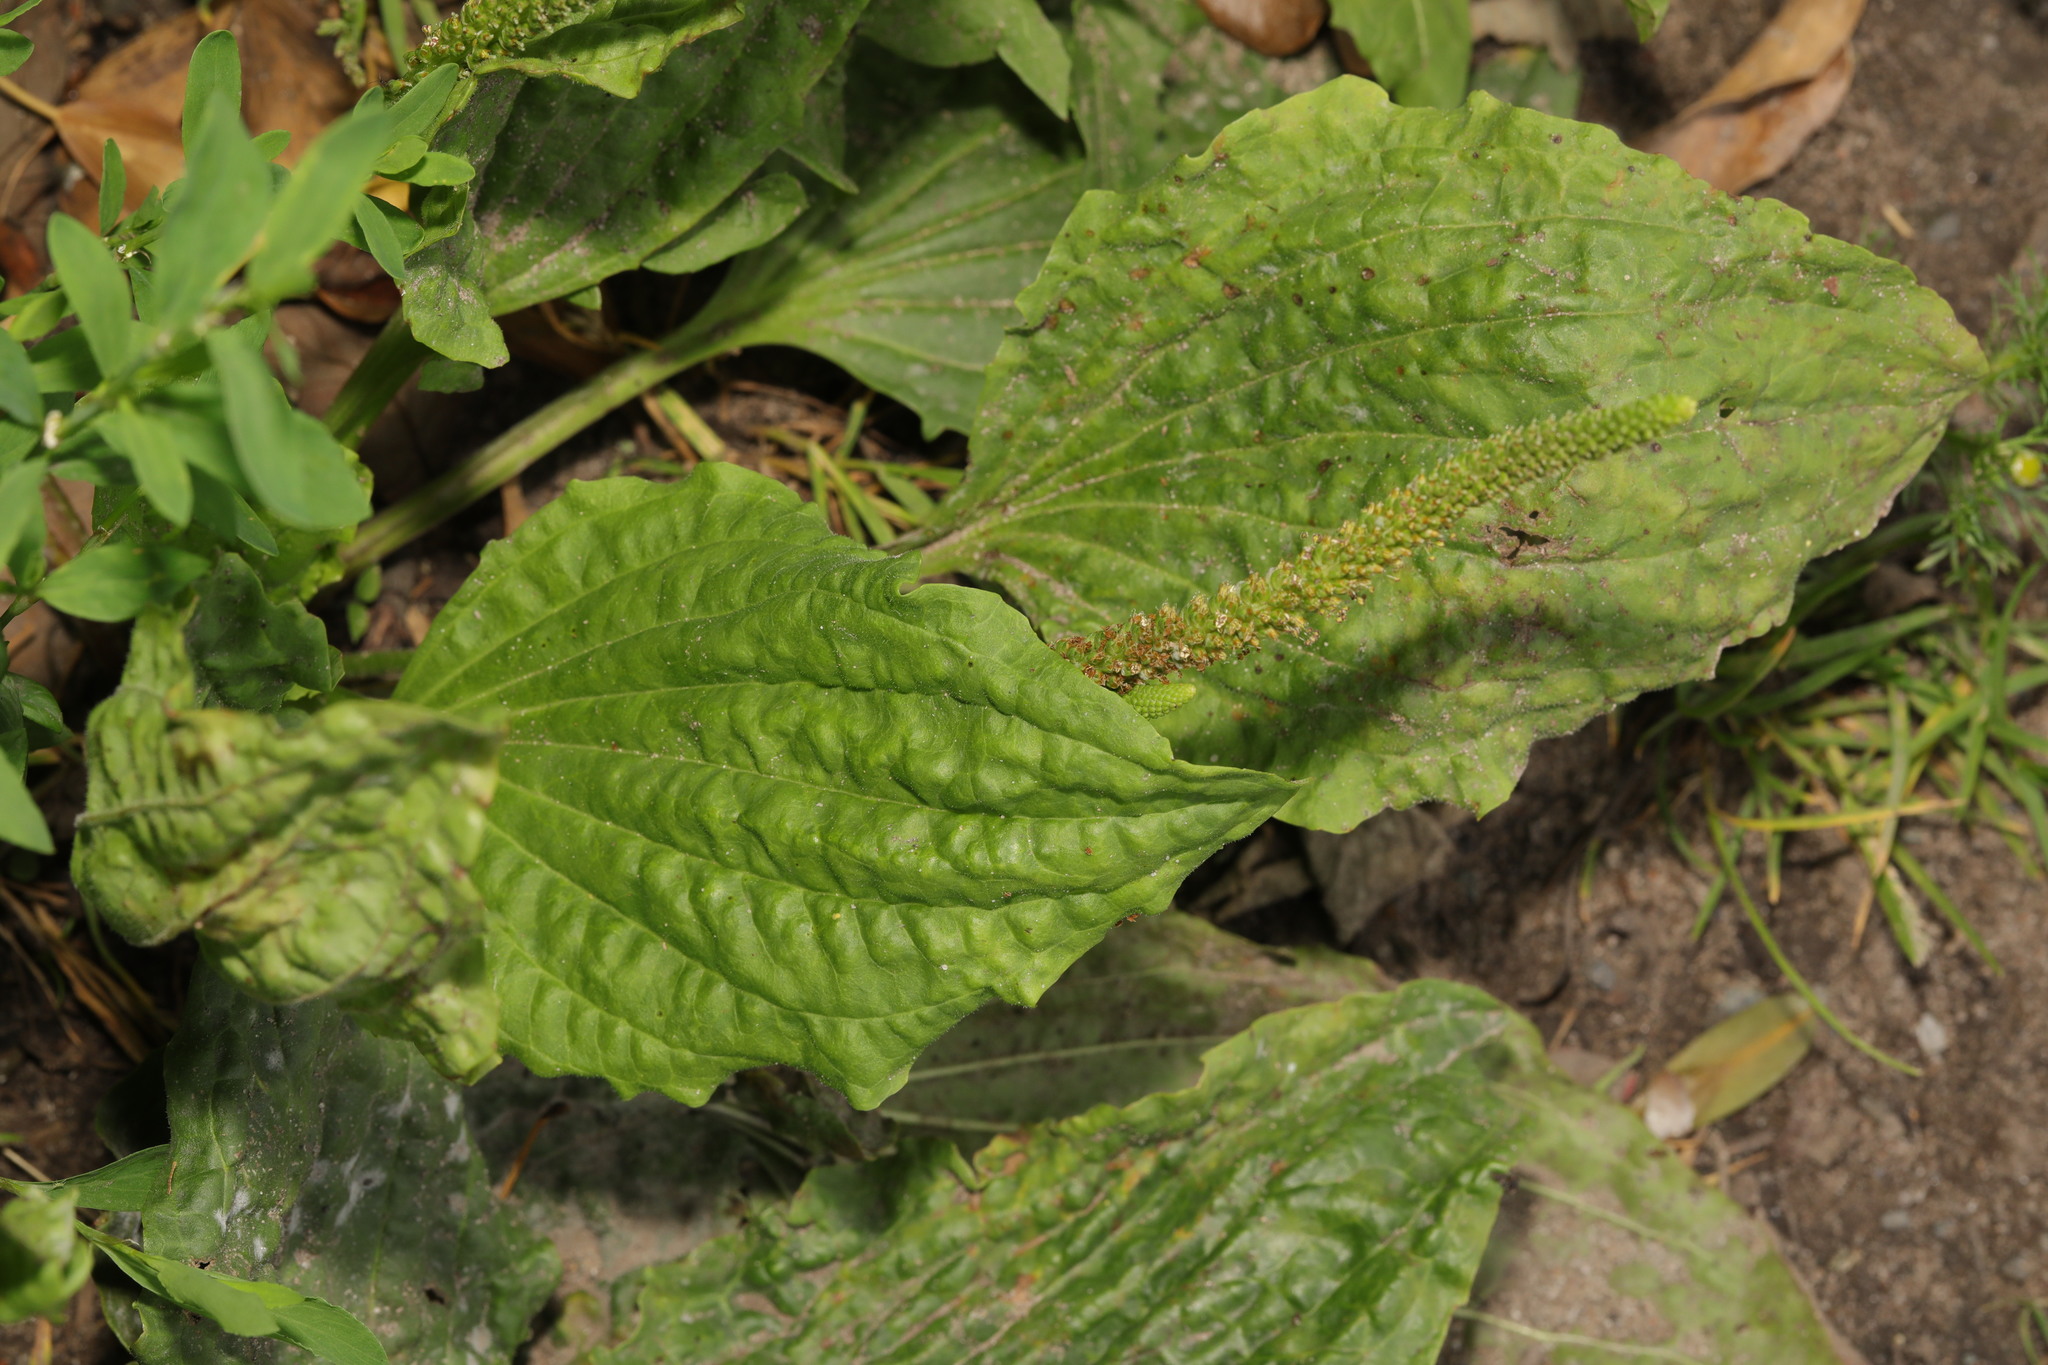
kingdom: Plantae
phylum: Tracheophyta
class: Magnoliopsida
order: Lamiales
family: Plantaginaceae
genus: Plantago
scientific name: Plantago major
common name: Common plantain
